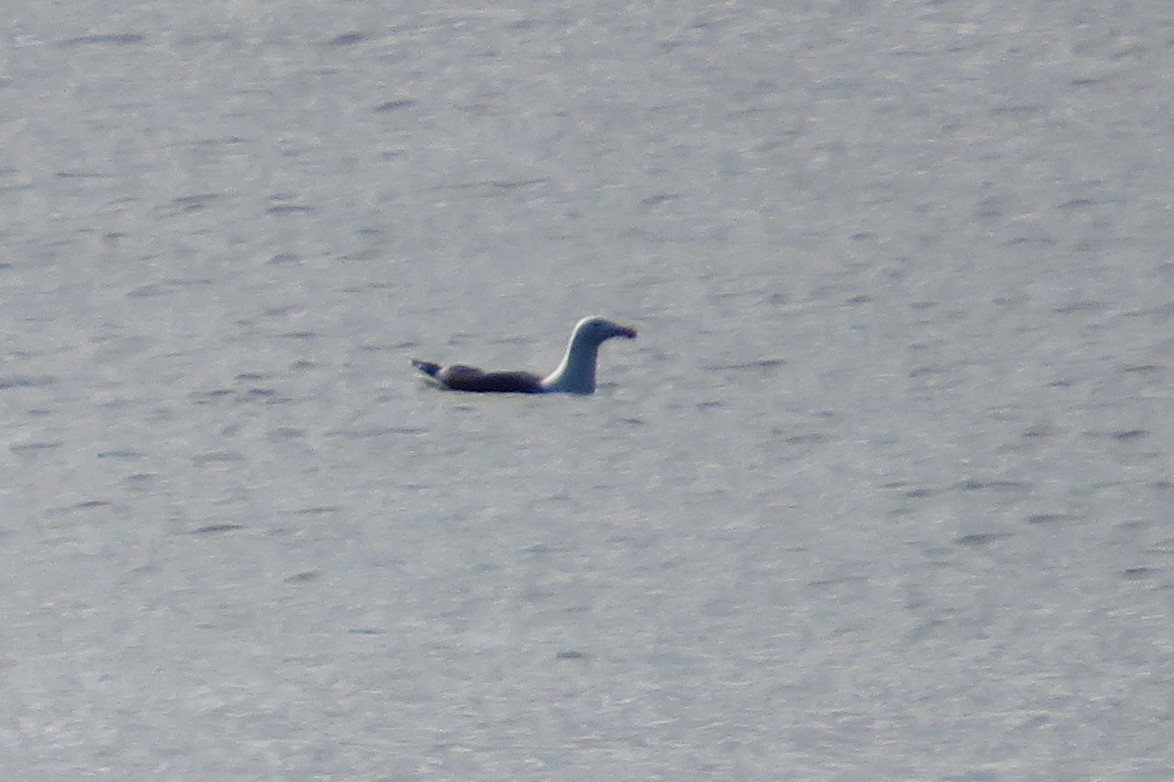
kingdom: Animalia
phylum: Chordata
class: Aves
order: Charadriiformes
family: Laridae
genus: Larus
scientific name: Larus marinus
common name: Great black-backed gull
